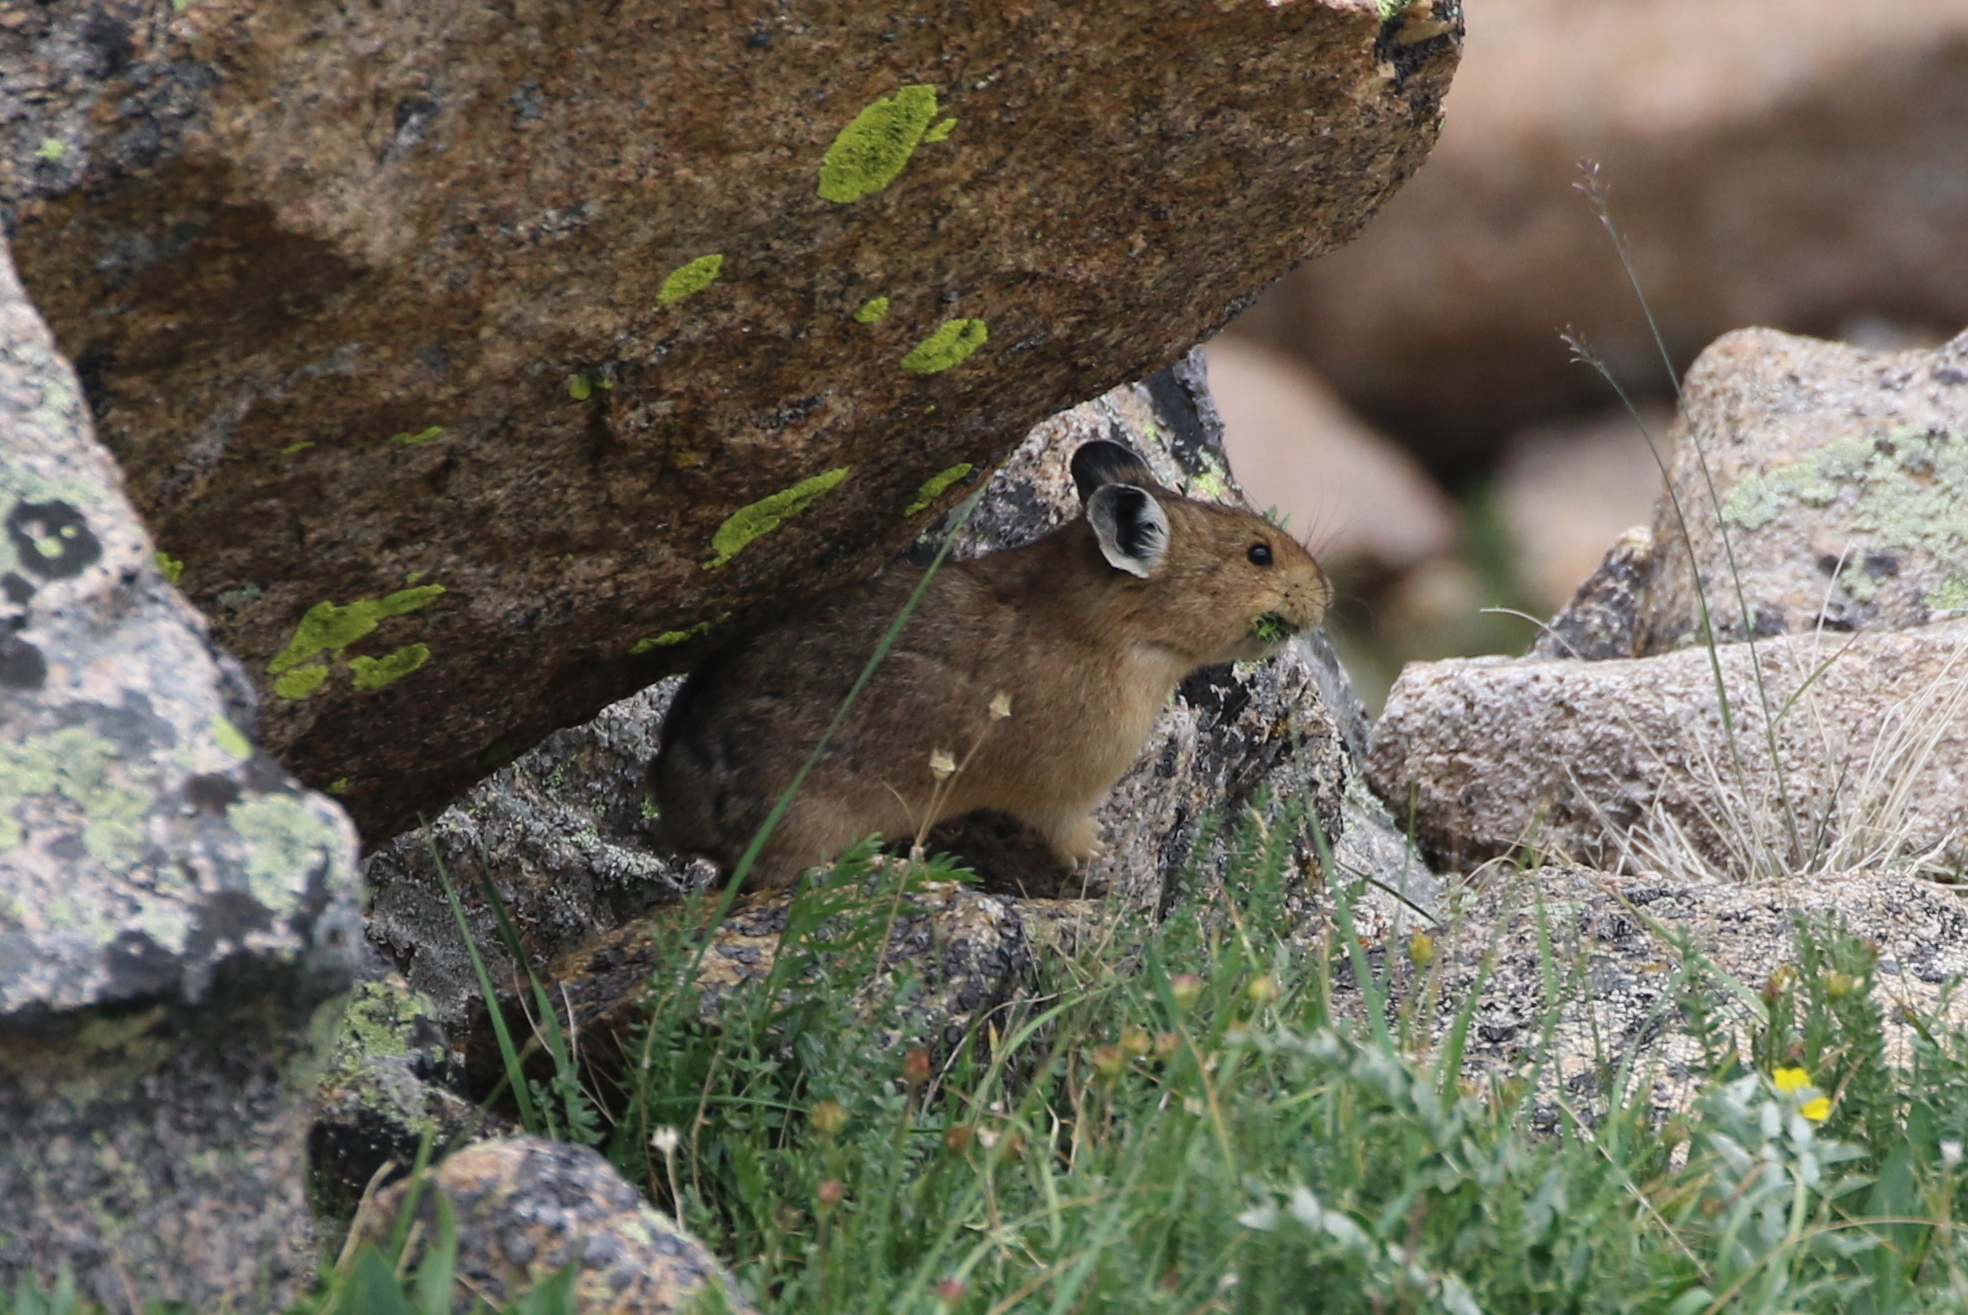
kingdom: Animalia
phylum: Chordata
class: Mammalia
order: Lagomorpha
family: Ochotonidae
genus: Ochotona
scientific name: Ochotona princeps
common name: American pika
